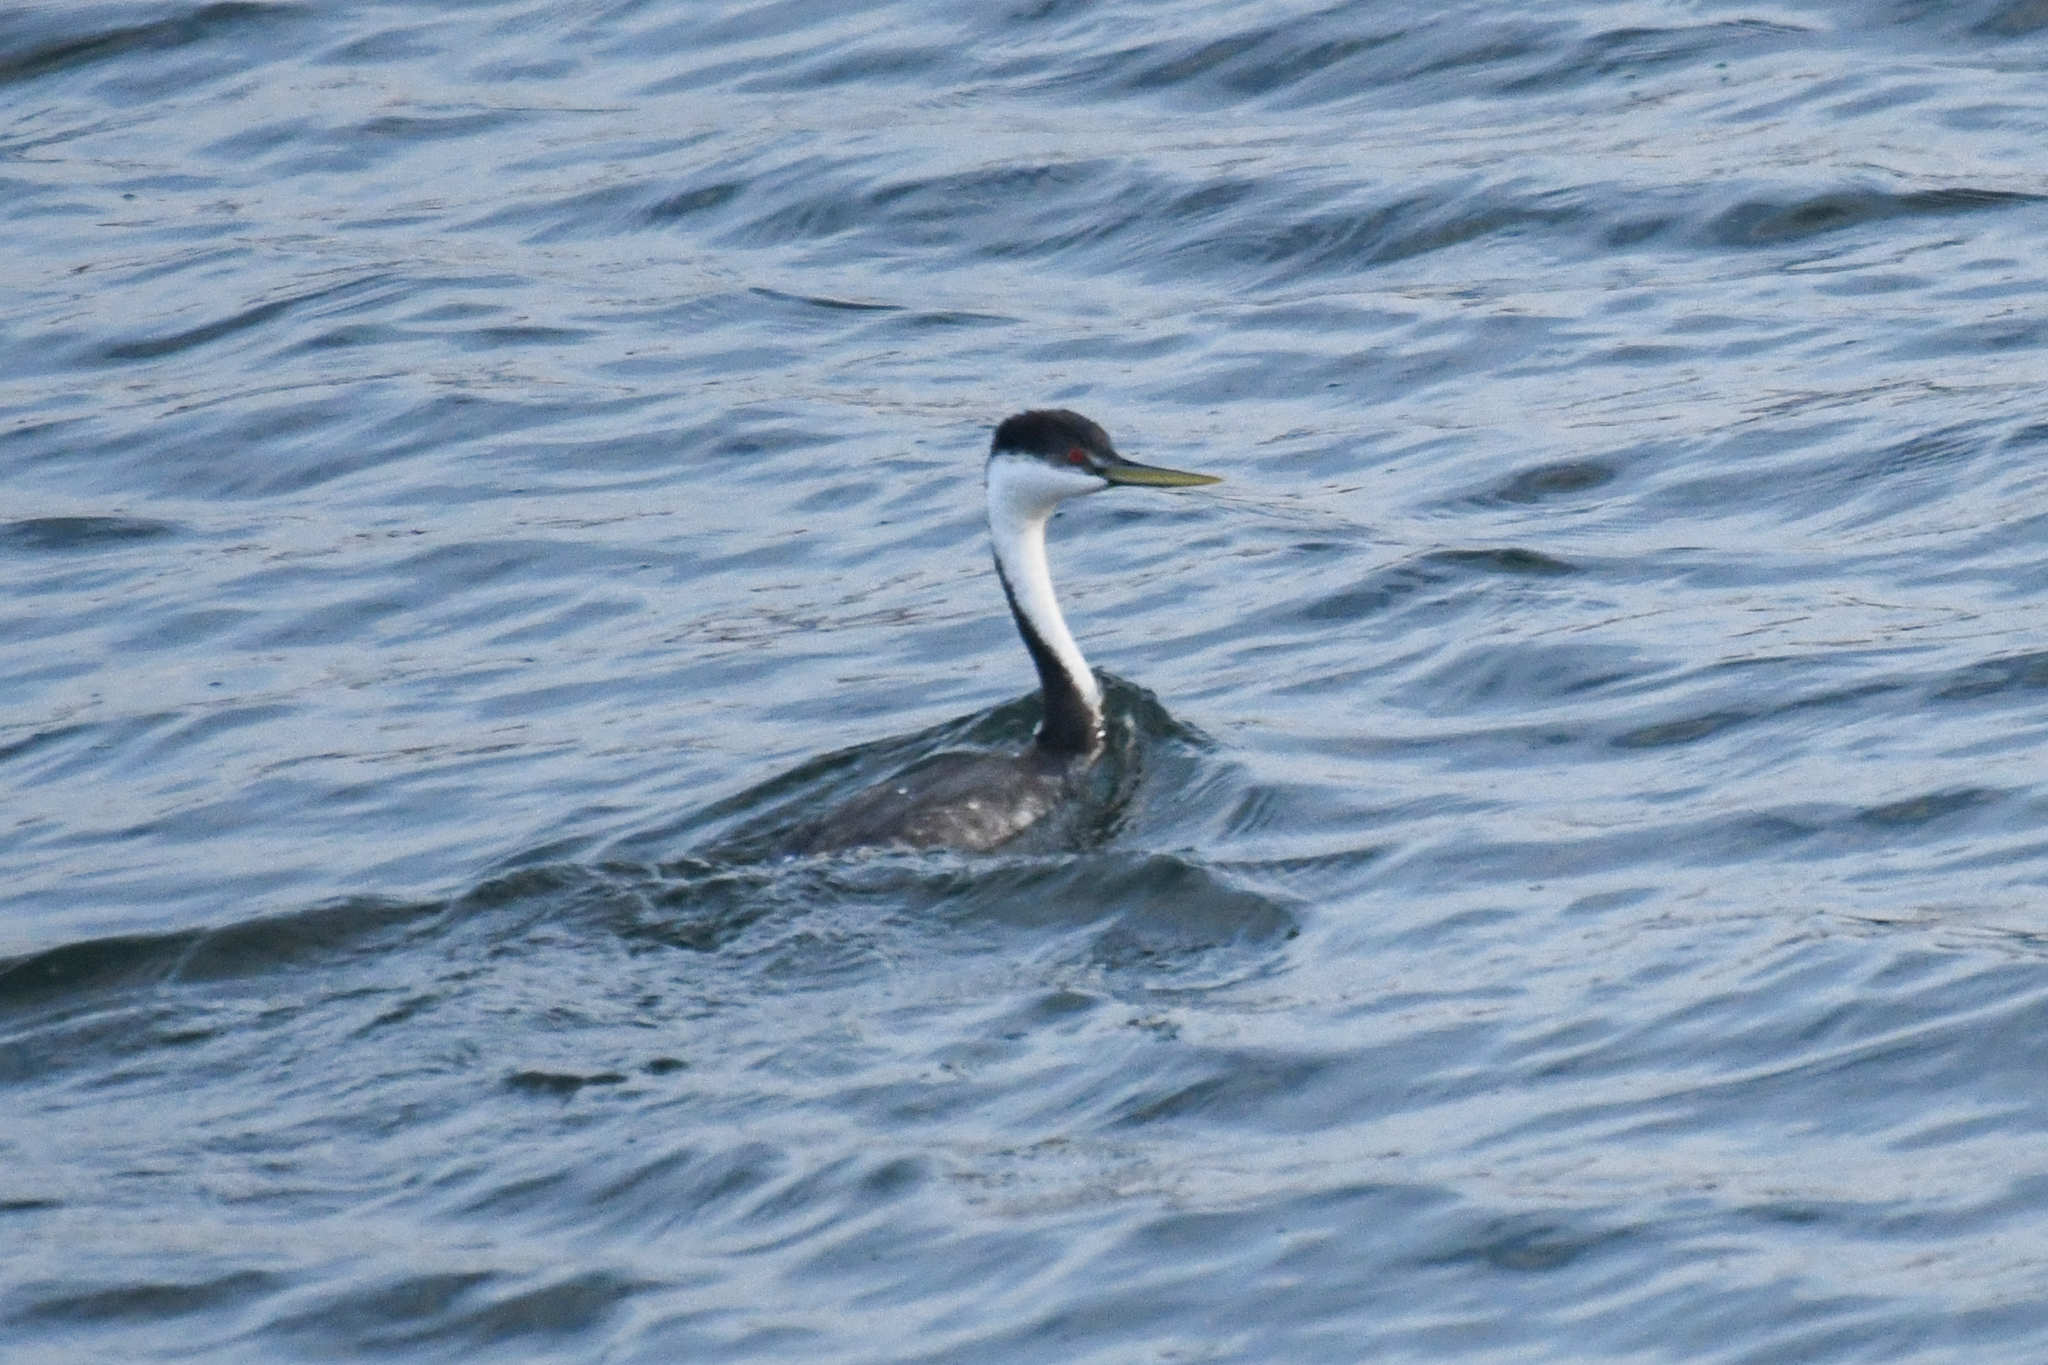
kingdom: Animalia
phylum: Chordata
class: Aves
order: Podicipediformes
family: Podicipedidae
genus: Aechmophorus
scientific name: Aechmophorus occidentalis
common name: Western grebe
